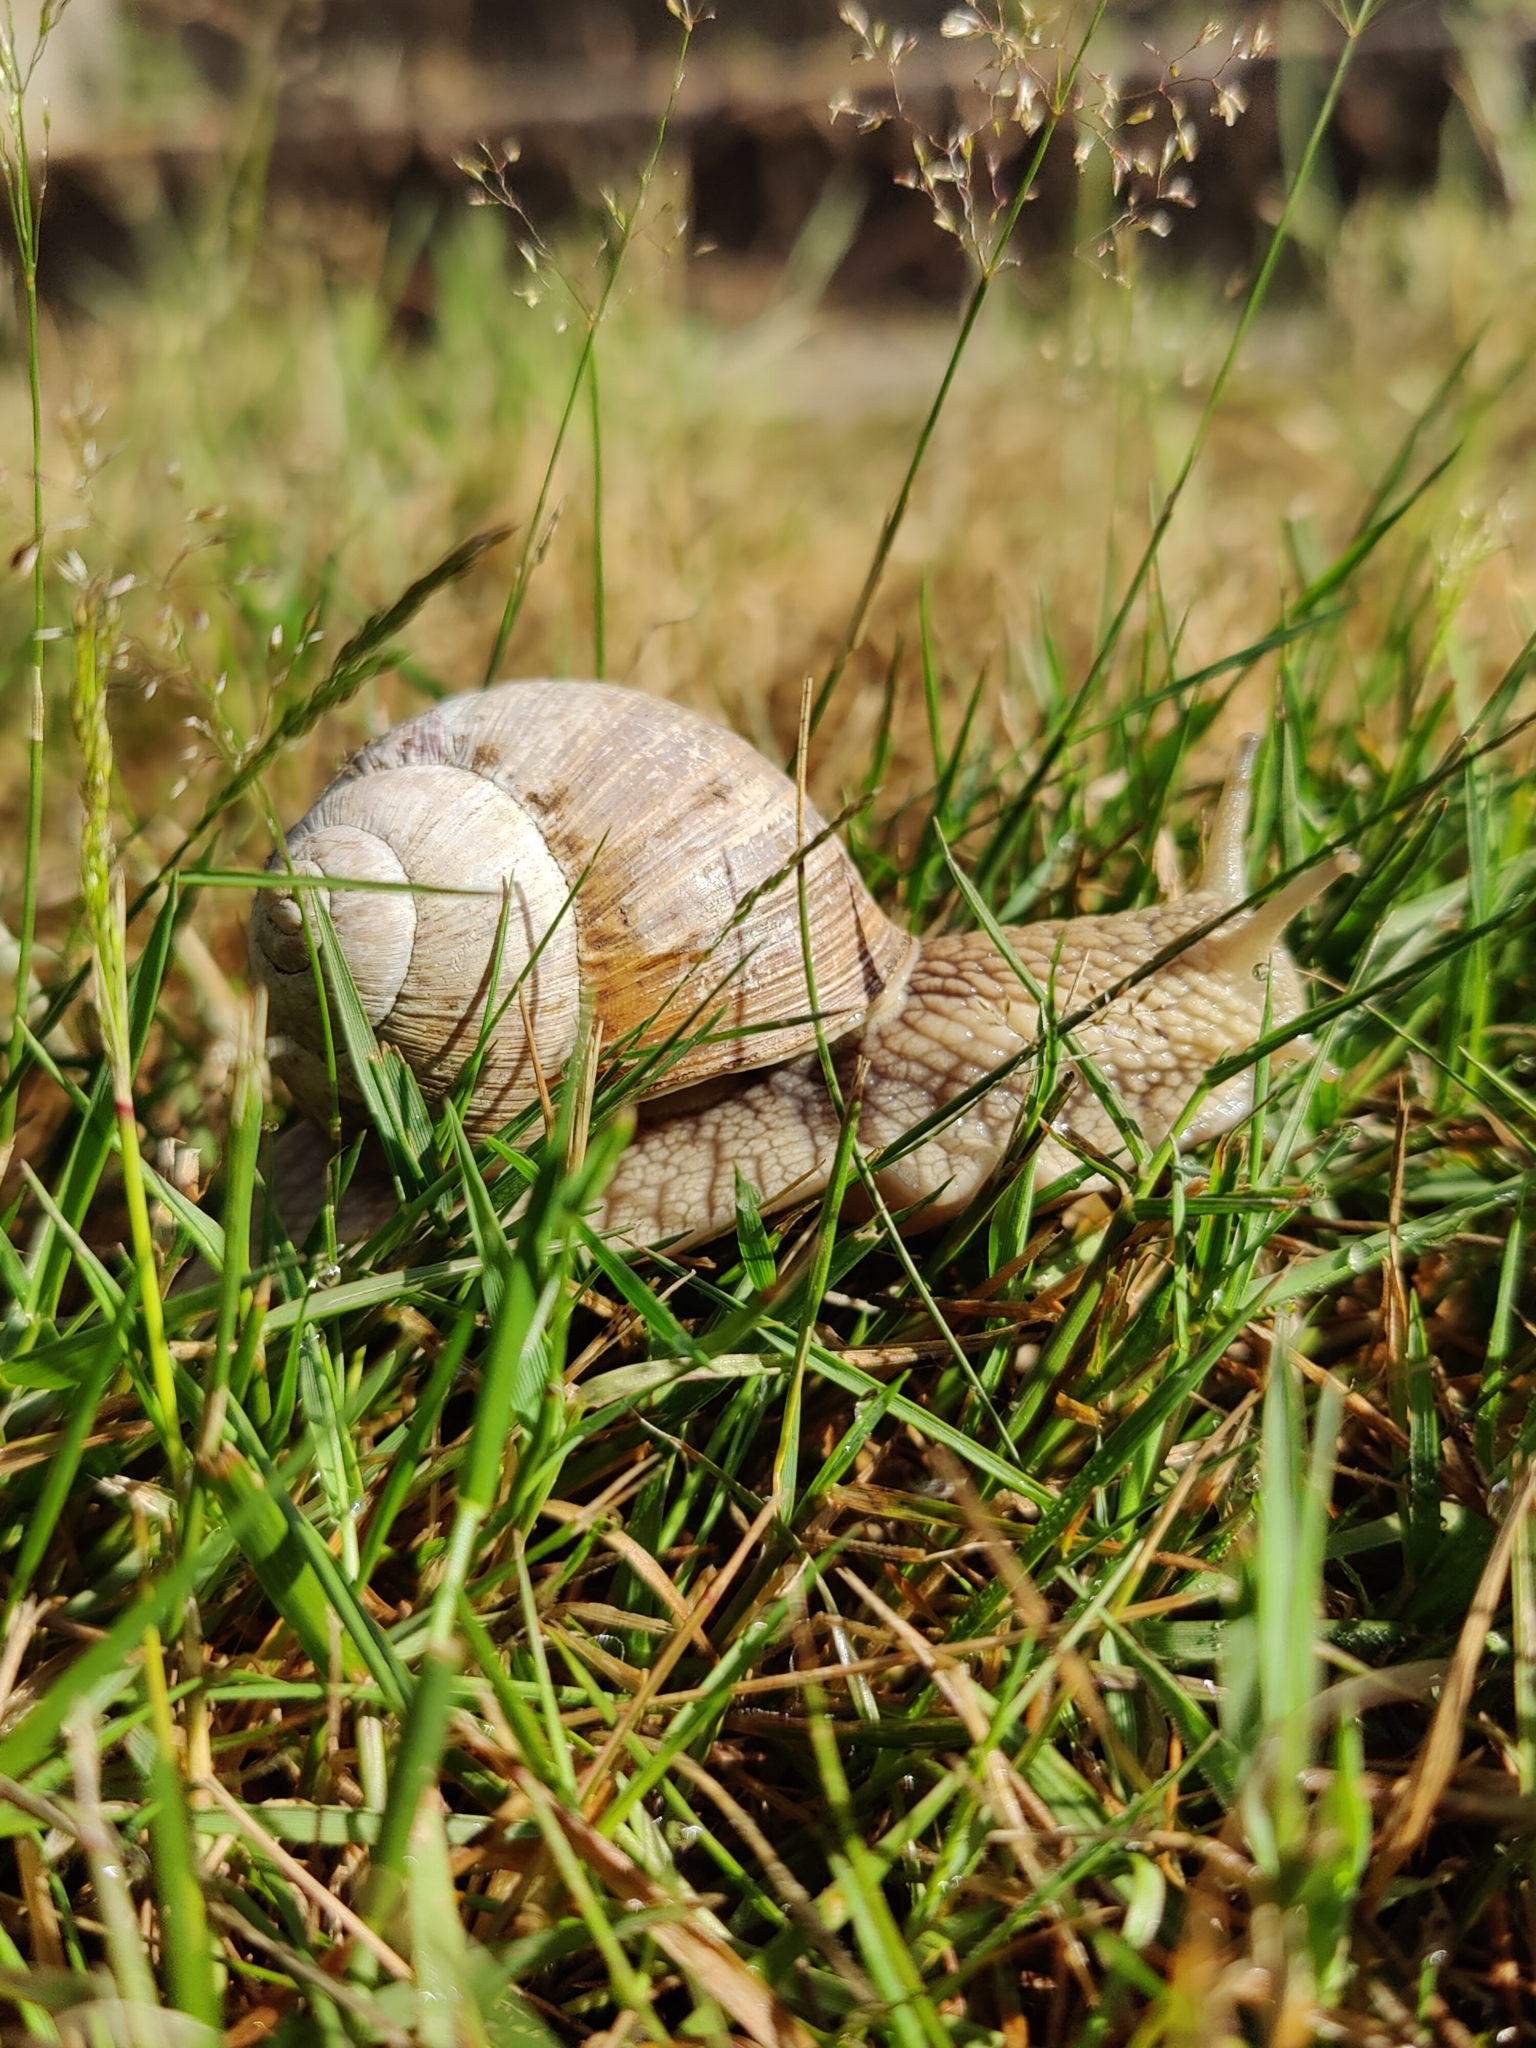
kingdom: Animalia
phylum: Mollusca
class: Gastropoda
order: Stylommatophora
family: Helicidae
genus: Helix
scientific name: Helix pomatia
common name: Roman snail
